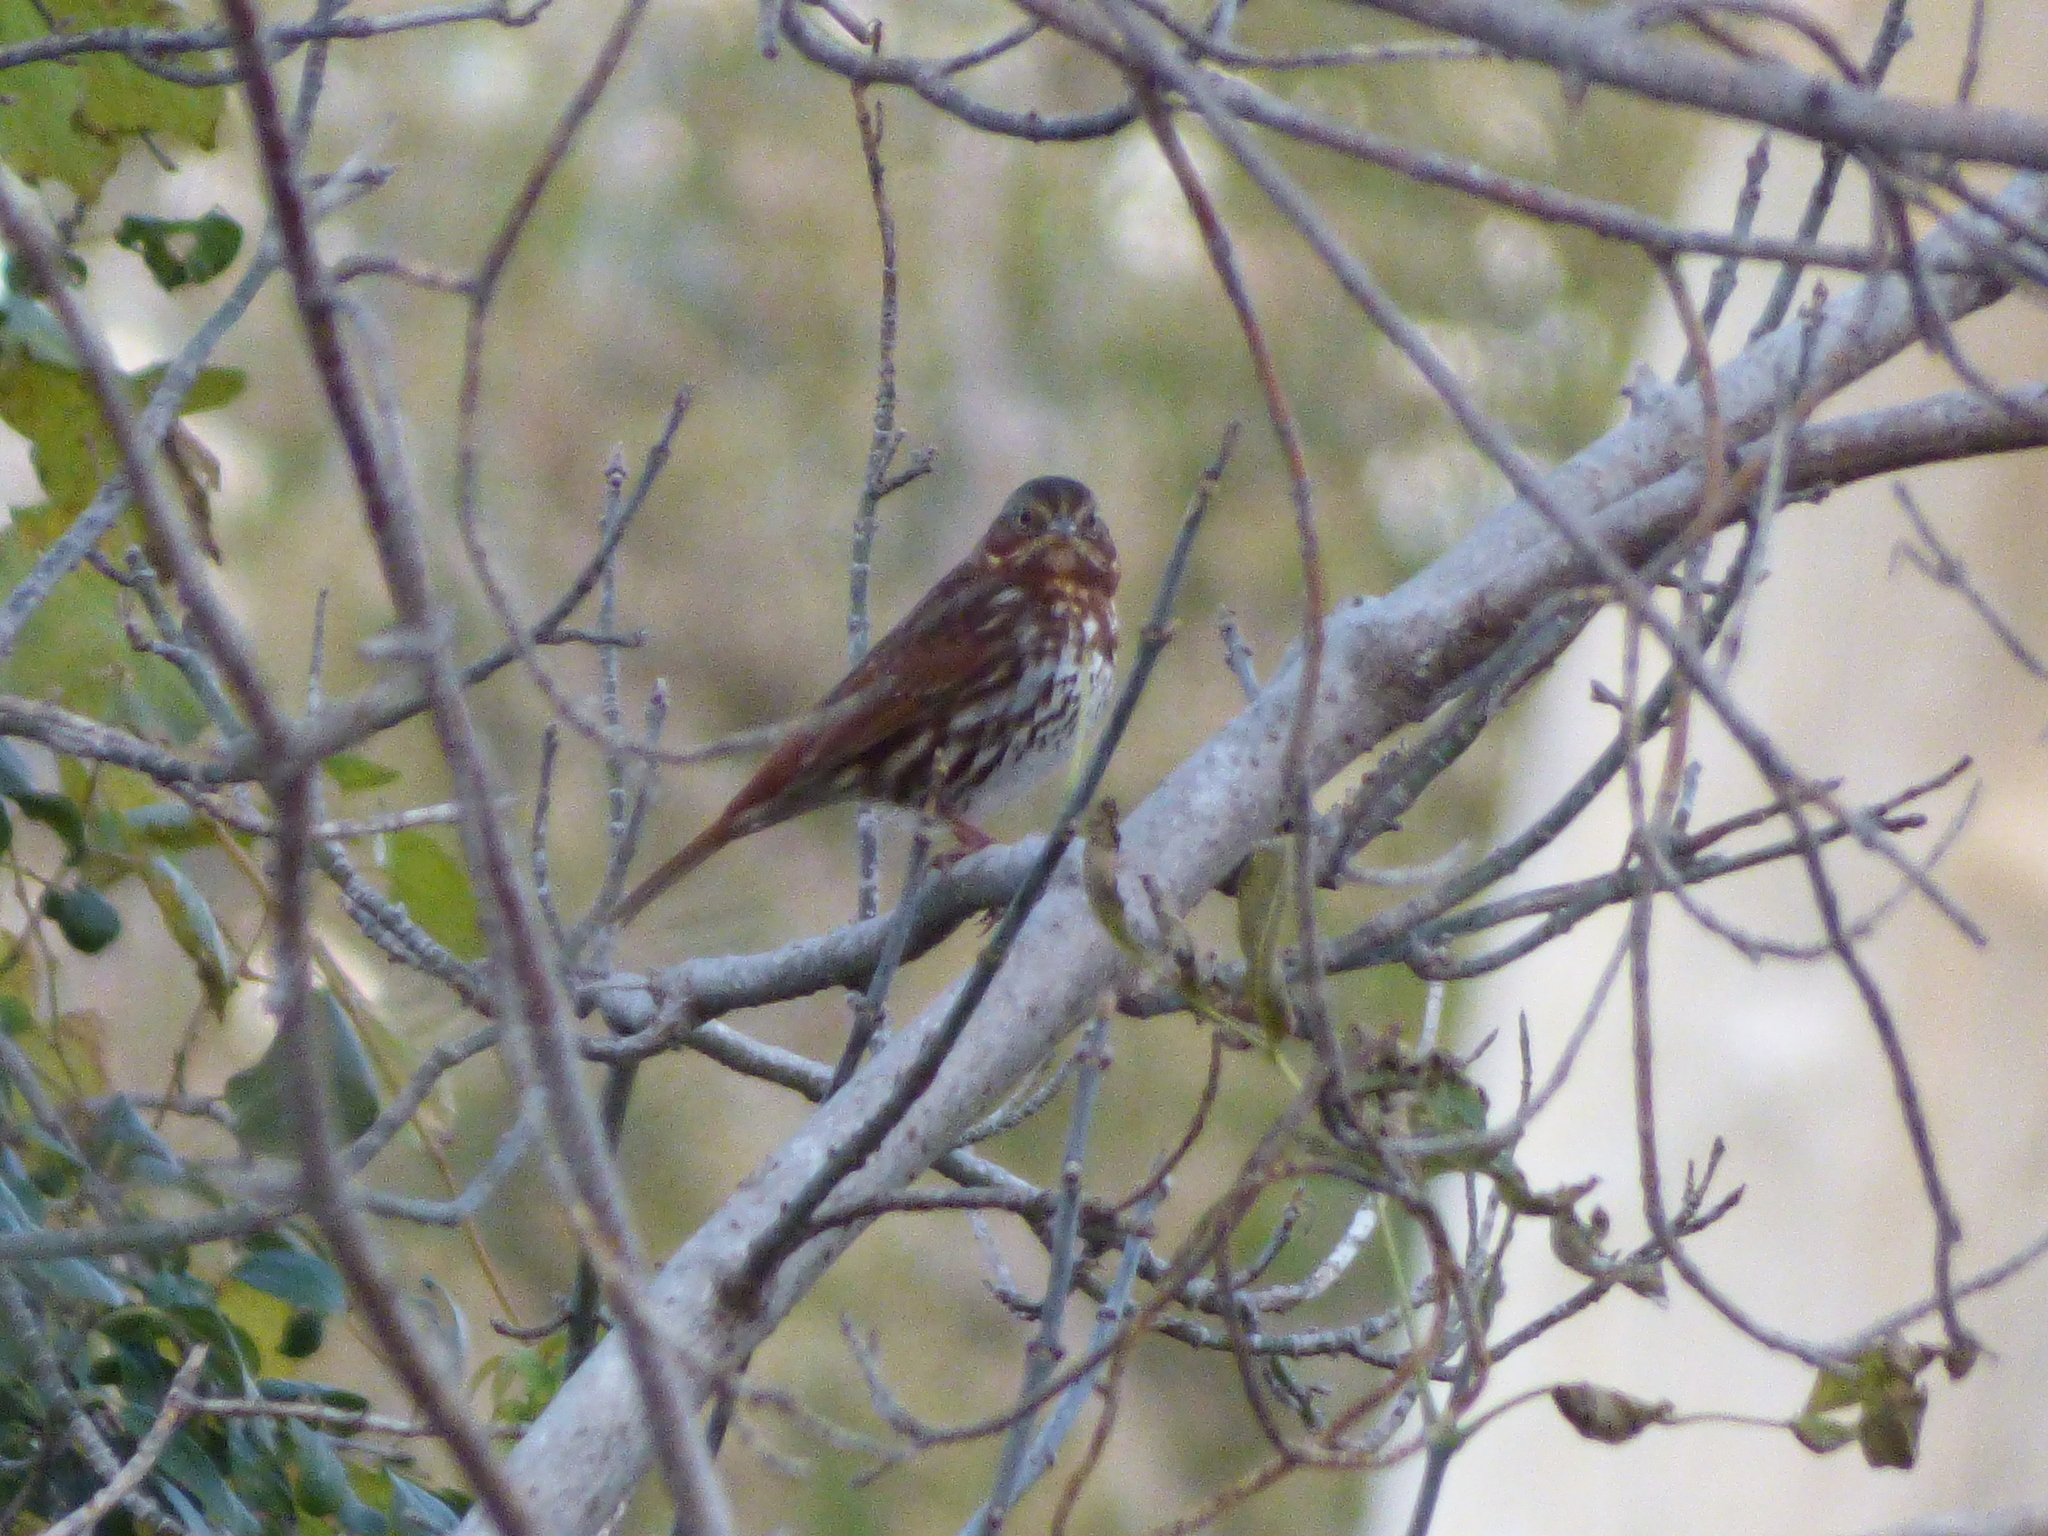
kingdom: Animalia
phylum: Chordata
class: Aves
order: Passeriformes
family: Passerellidae
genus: Passerella
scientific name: Passerella iliaca
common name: Fox sparrow
